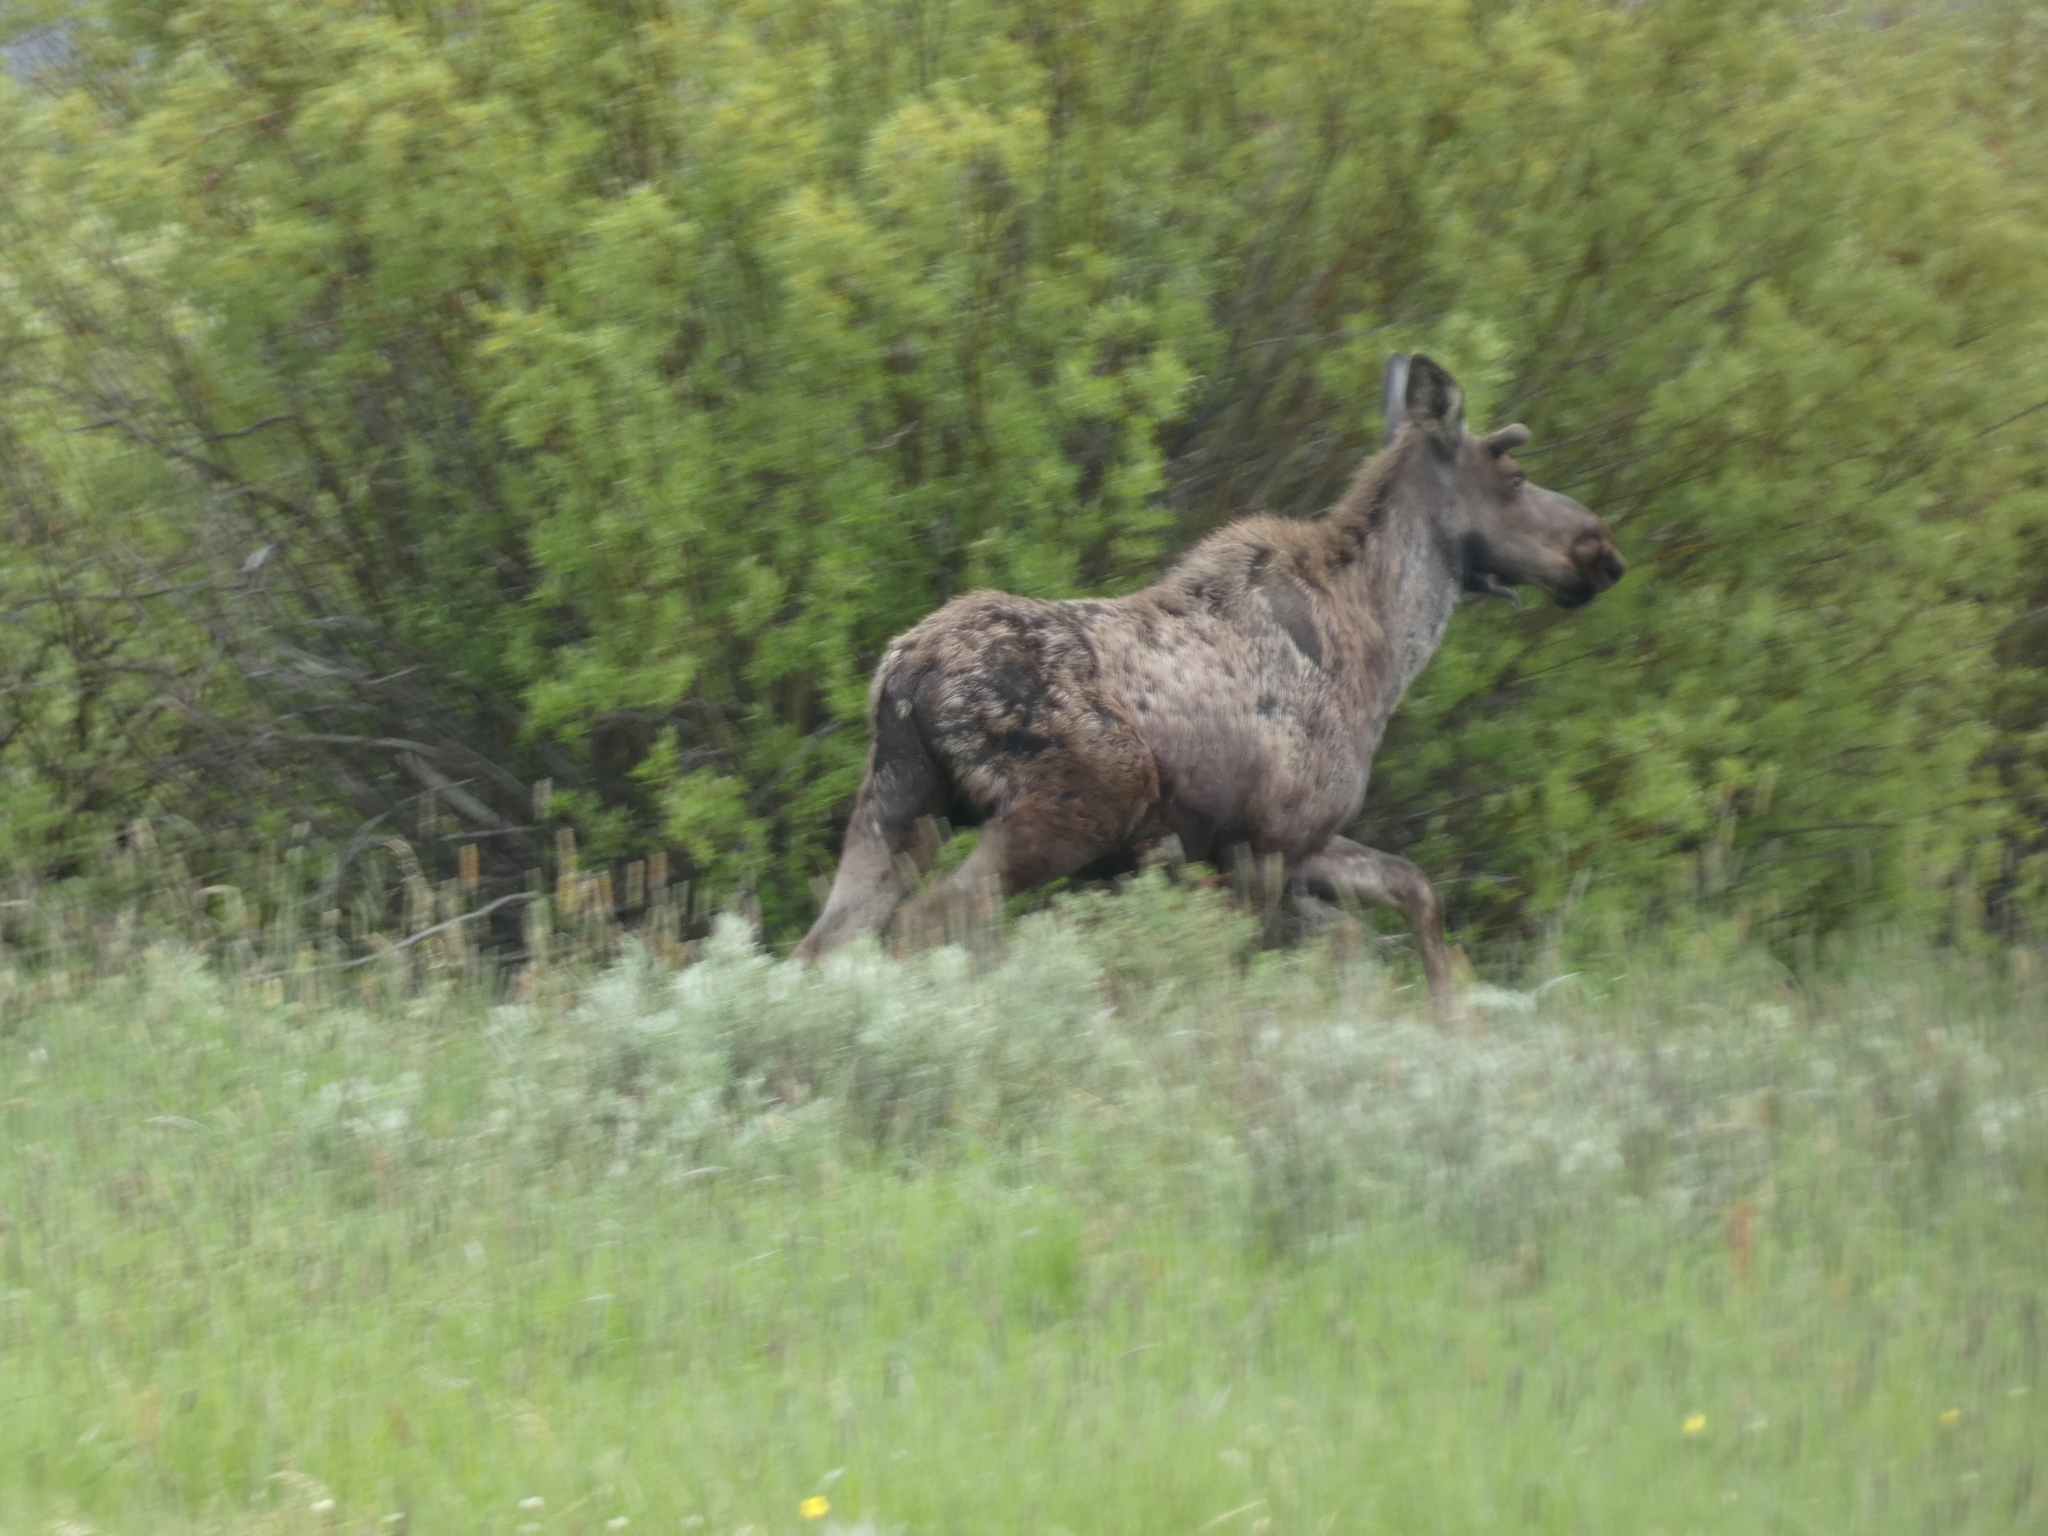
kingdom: Animalia
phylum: Chordata
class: Mammalia
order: Artiodactyla
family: Cervidae
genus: Alces
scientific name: Alces alces
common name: Moose
